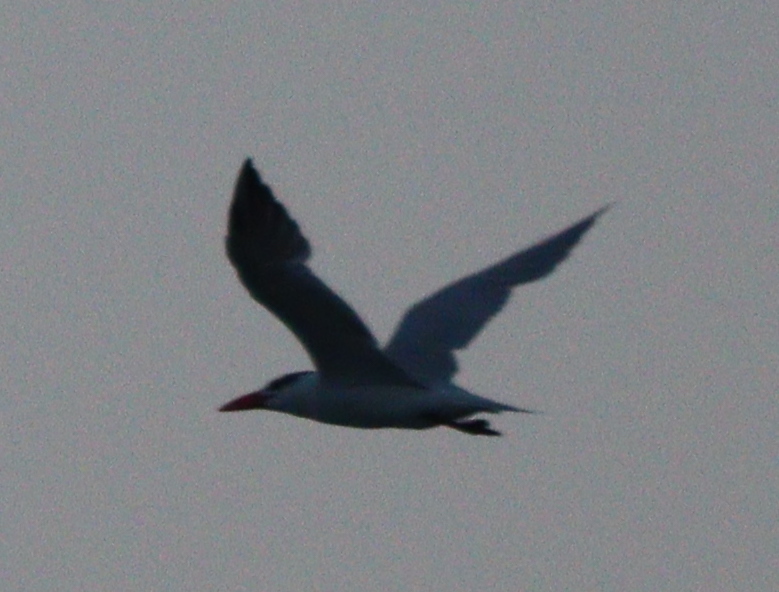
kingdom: Animalia
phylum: Chordata
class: Aves
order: Charadriiformes
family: Laridae
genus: Hydroprogne
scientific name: Hydroprogne caspia
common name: Caspian tern
